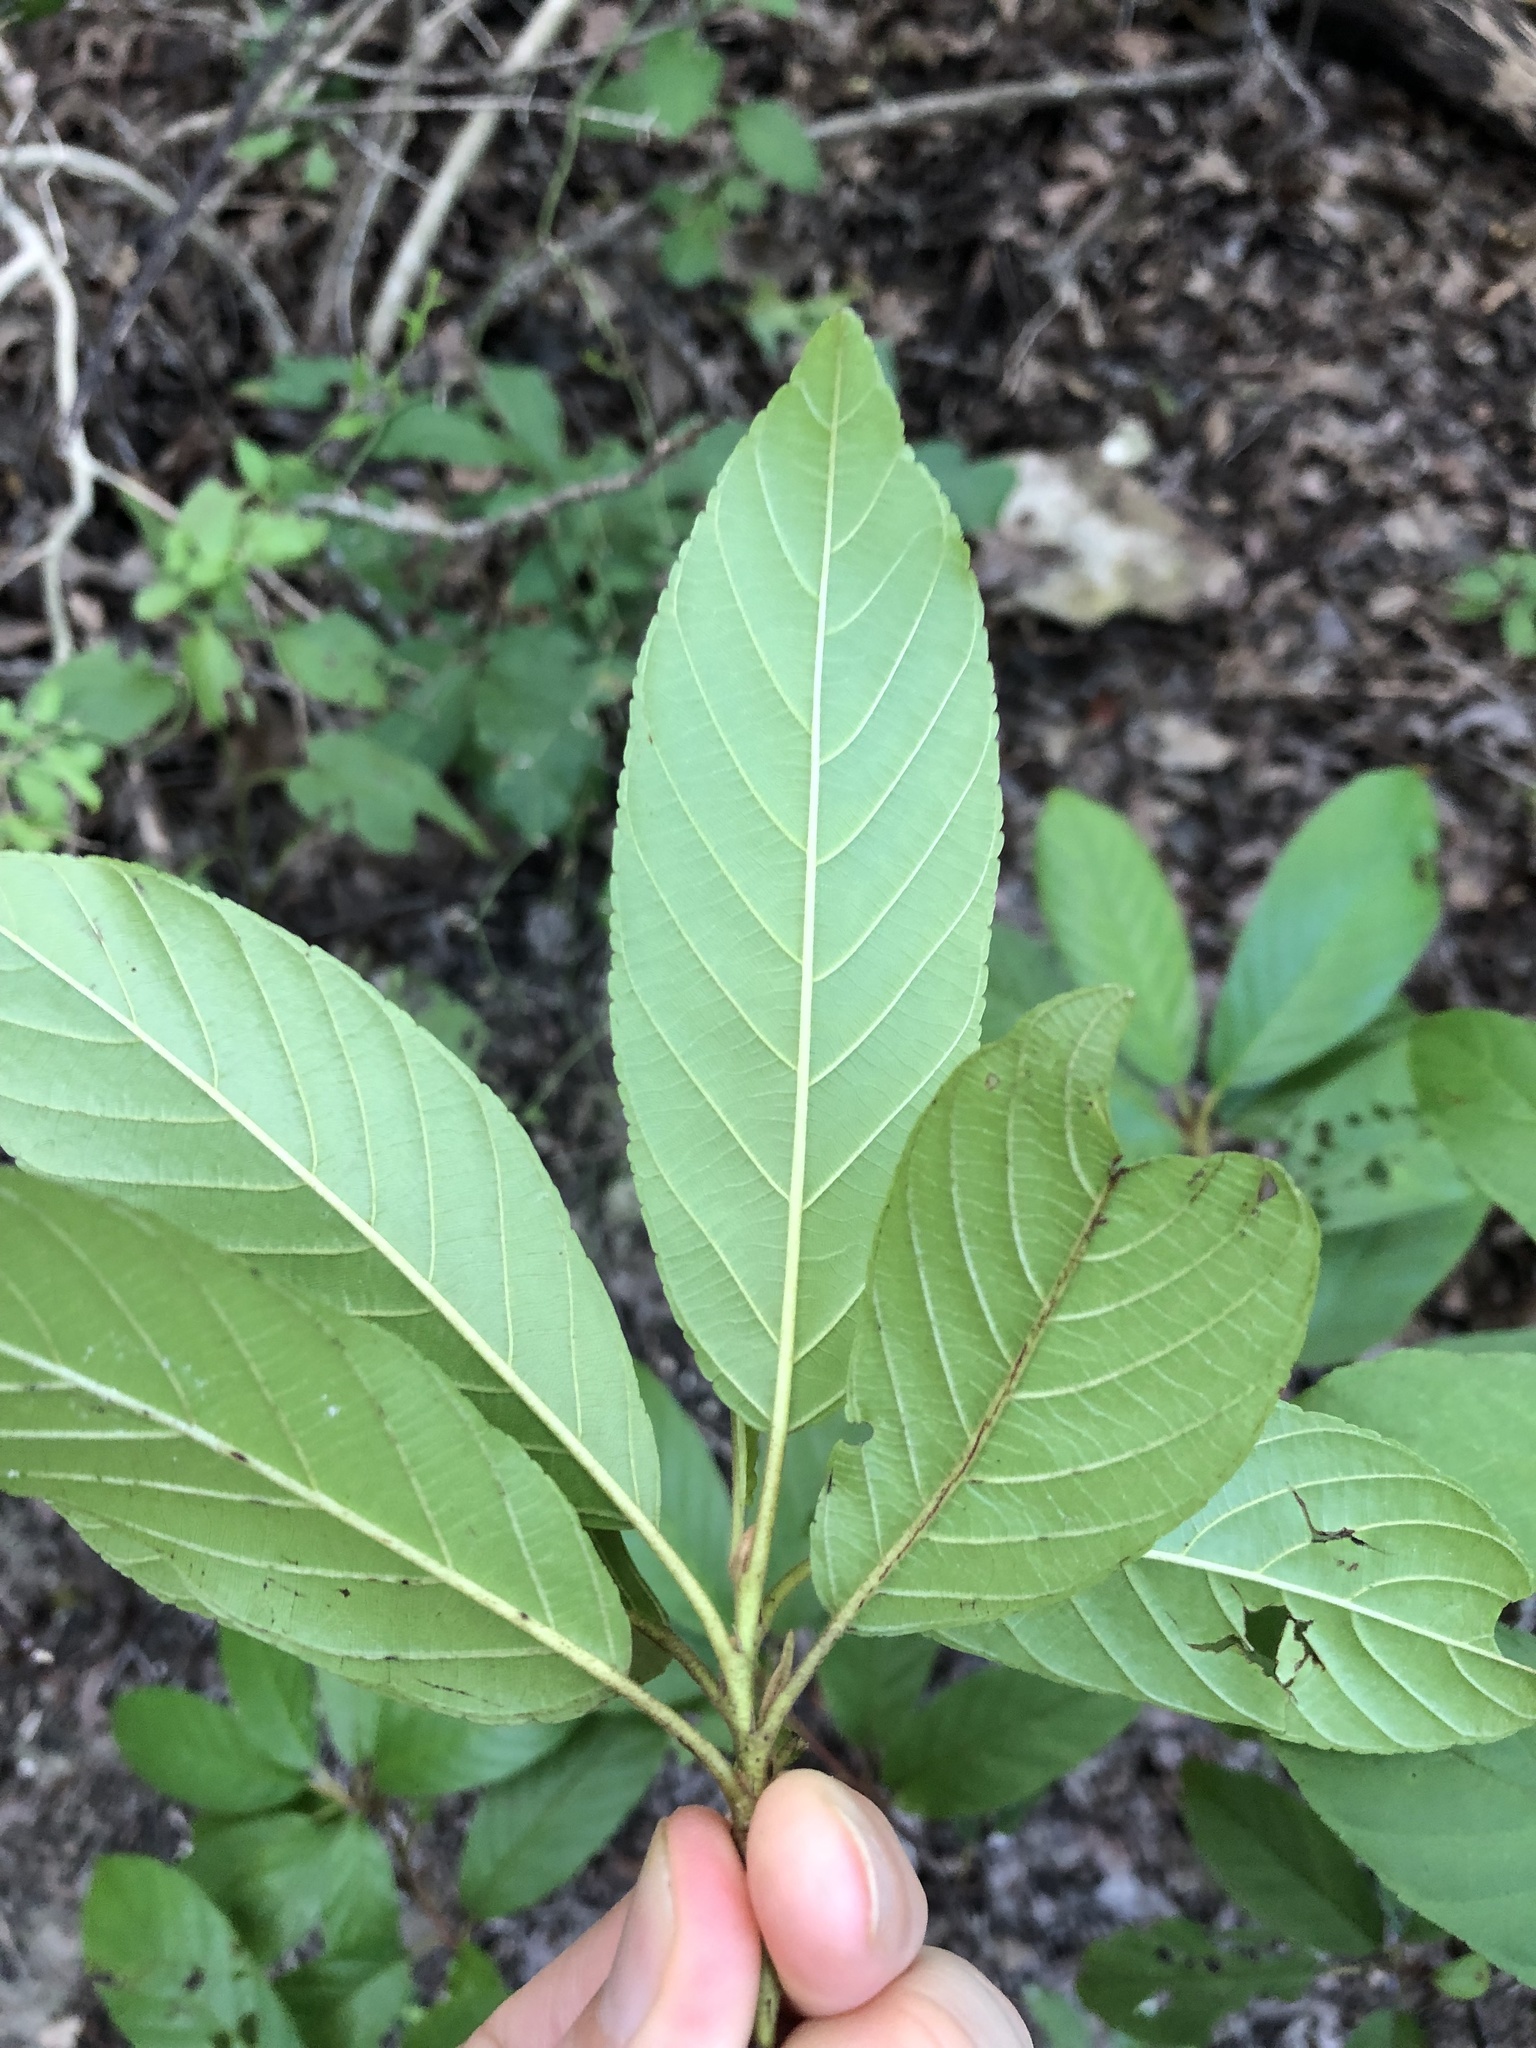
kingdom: Plantae
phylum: Tracheophyta
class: Magnoliopsida
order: Rosales
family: Rhamnaceae
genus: Frangula
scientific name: Frangula caroliniana
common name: Carolina buckthorn
